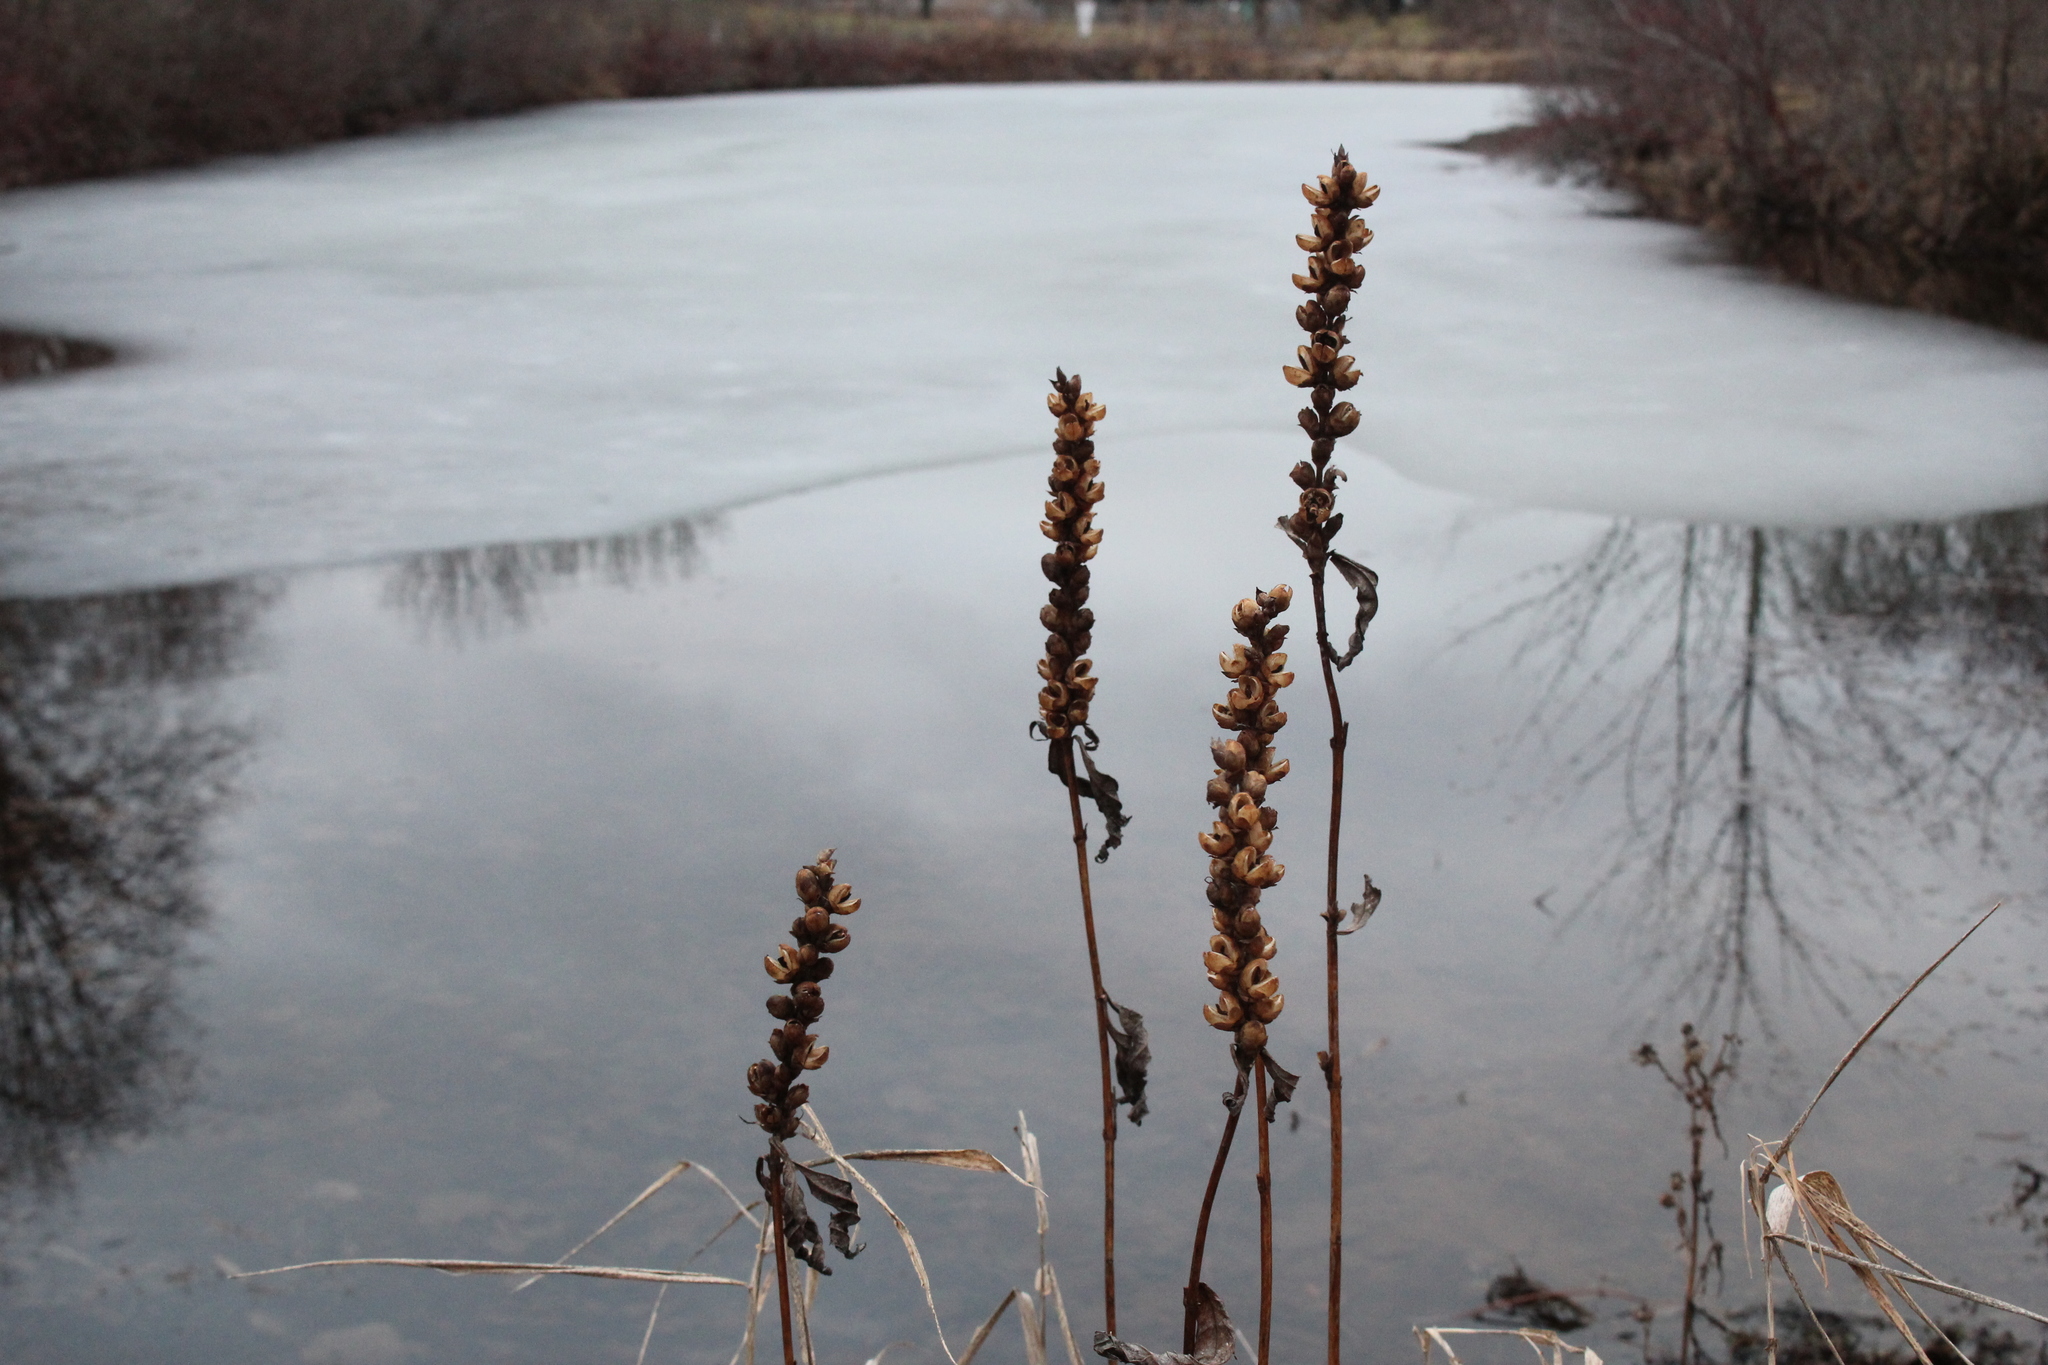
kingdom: Plantae
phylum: Tracheophyta
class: Magnoliopsida
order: Lamiales
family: Plantaginaceae
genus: Chelone
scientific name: Chelone glabra
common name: Snakehead
